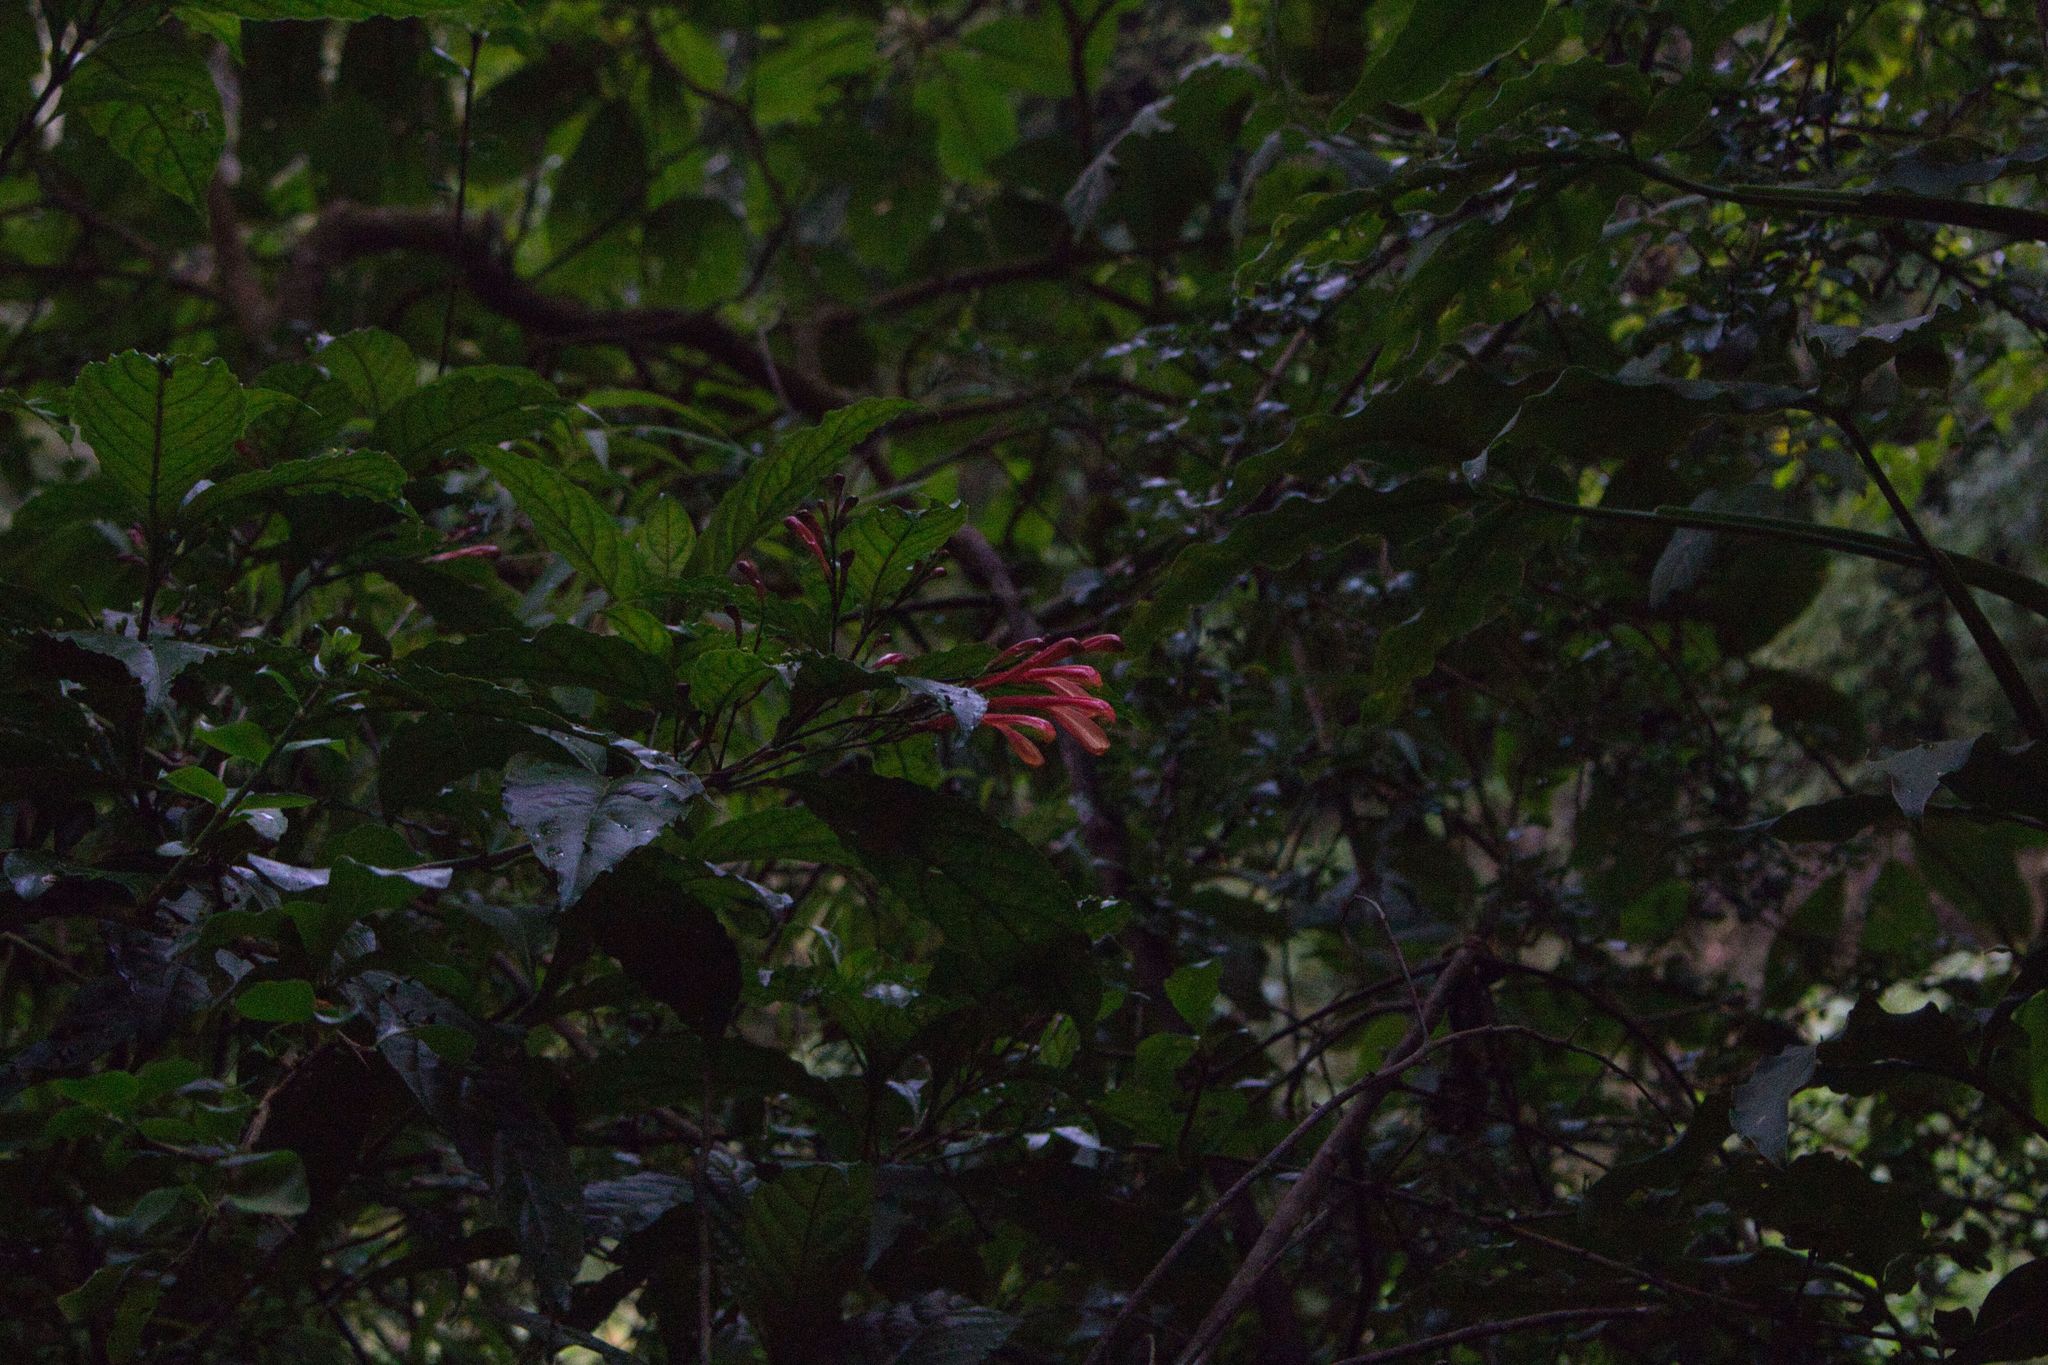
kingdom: Plantae
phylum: Tracheophyta
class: Magnoliopsida
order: Lamiales
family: Acanthaceae
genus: Justicia
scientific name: Justicia macrantha
